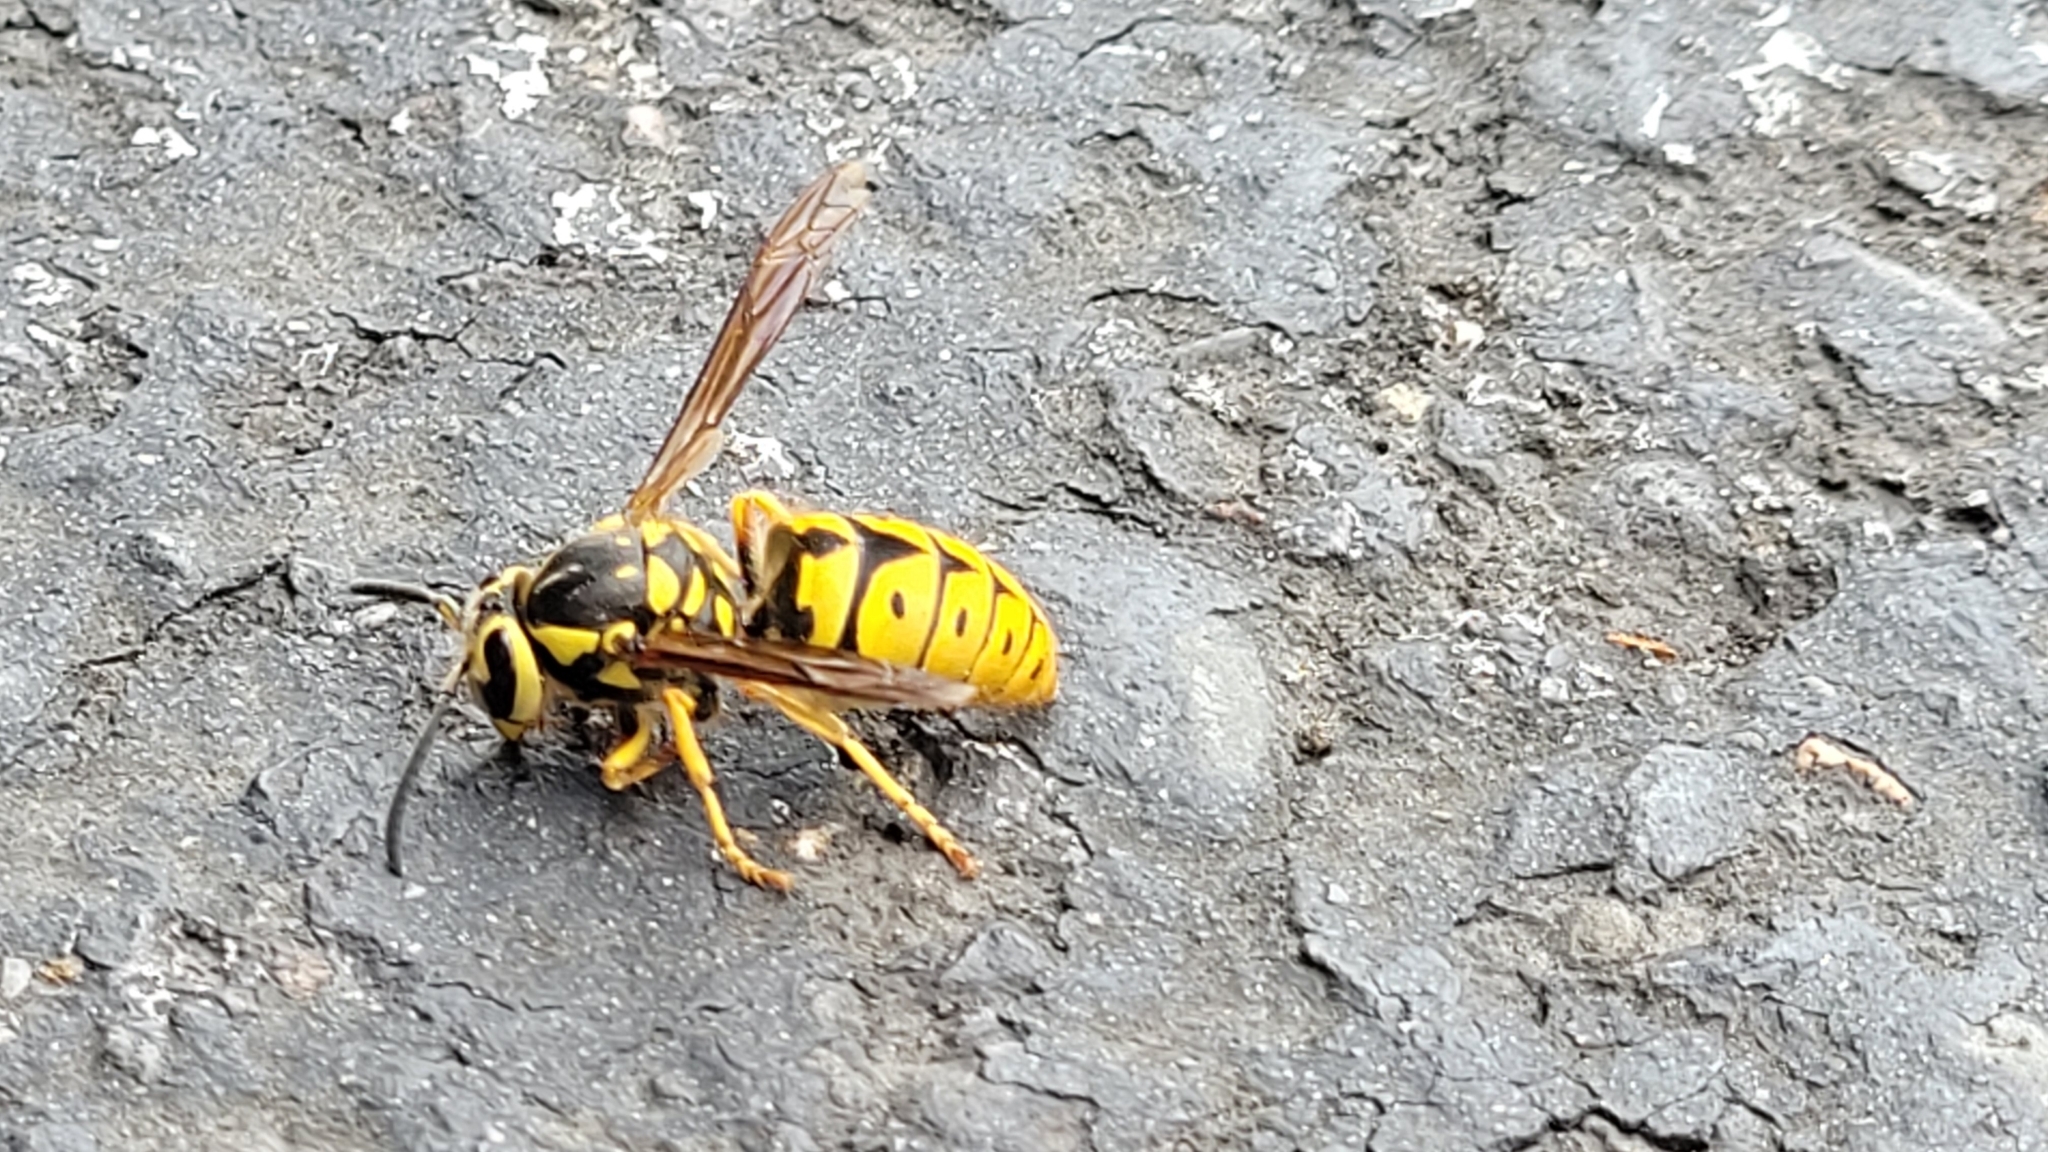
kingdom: Animalia
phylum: Arthropoda
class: Insecta
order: Hymenoptera
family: Vespidae
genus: Vespula
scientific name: Vespula pensylvanica
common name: Western yellowjacket
